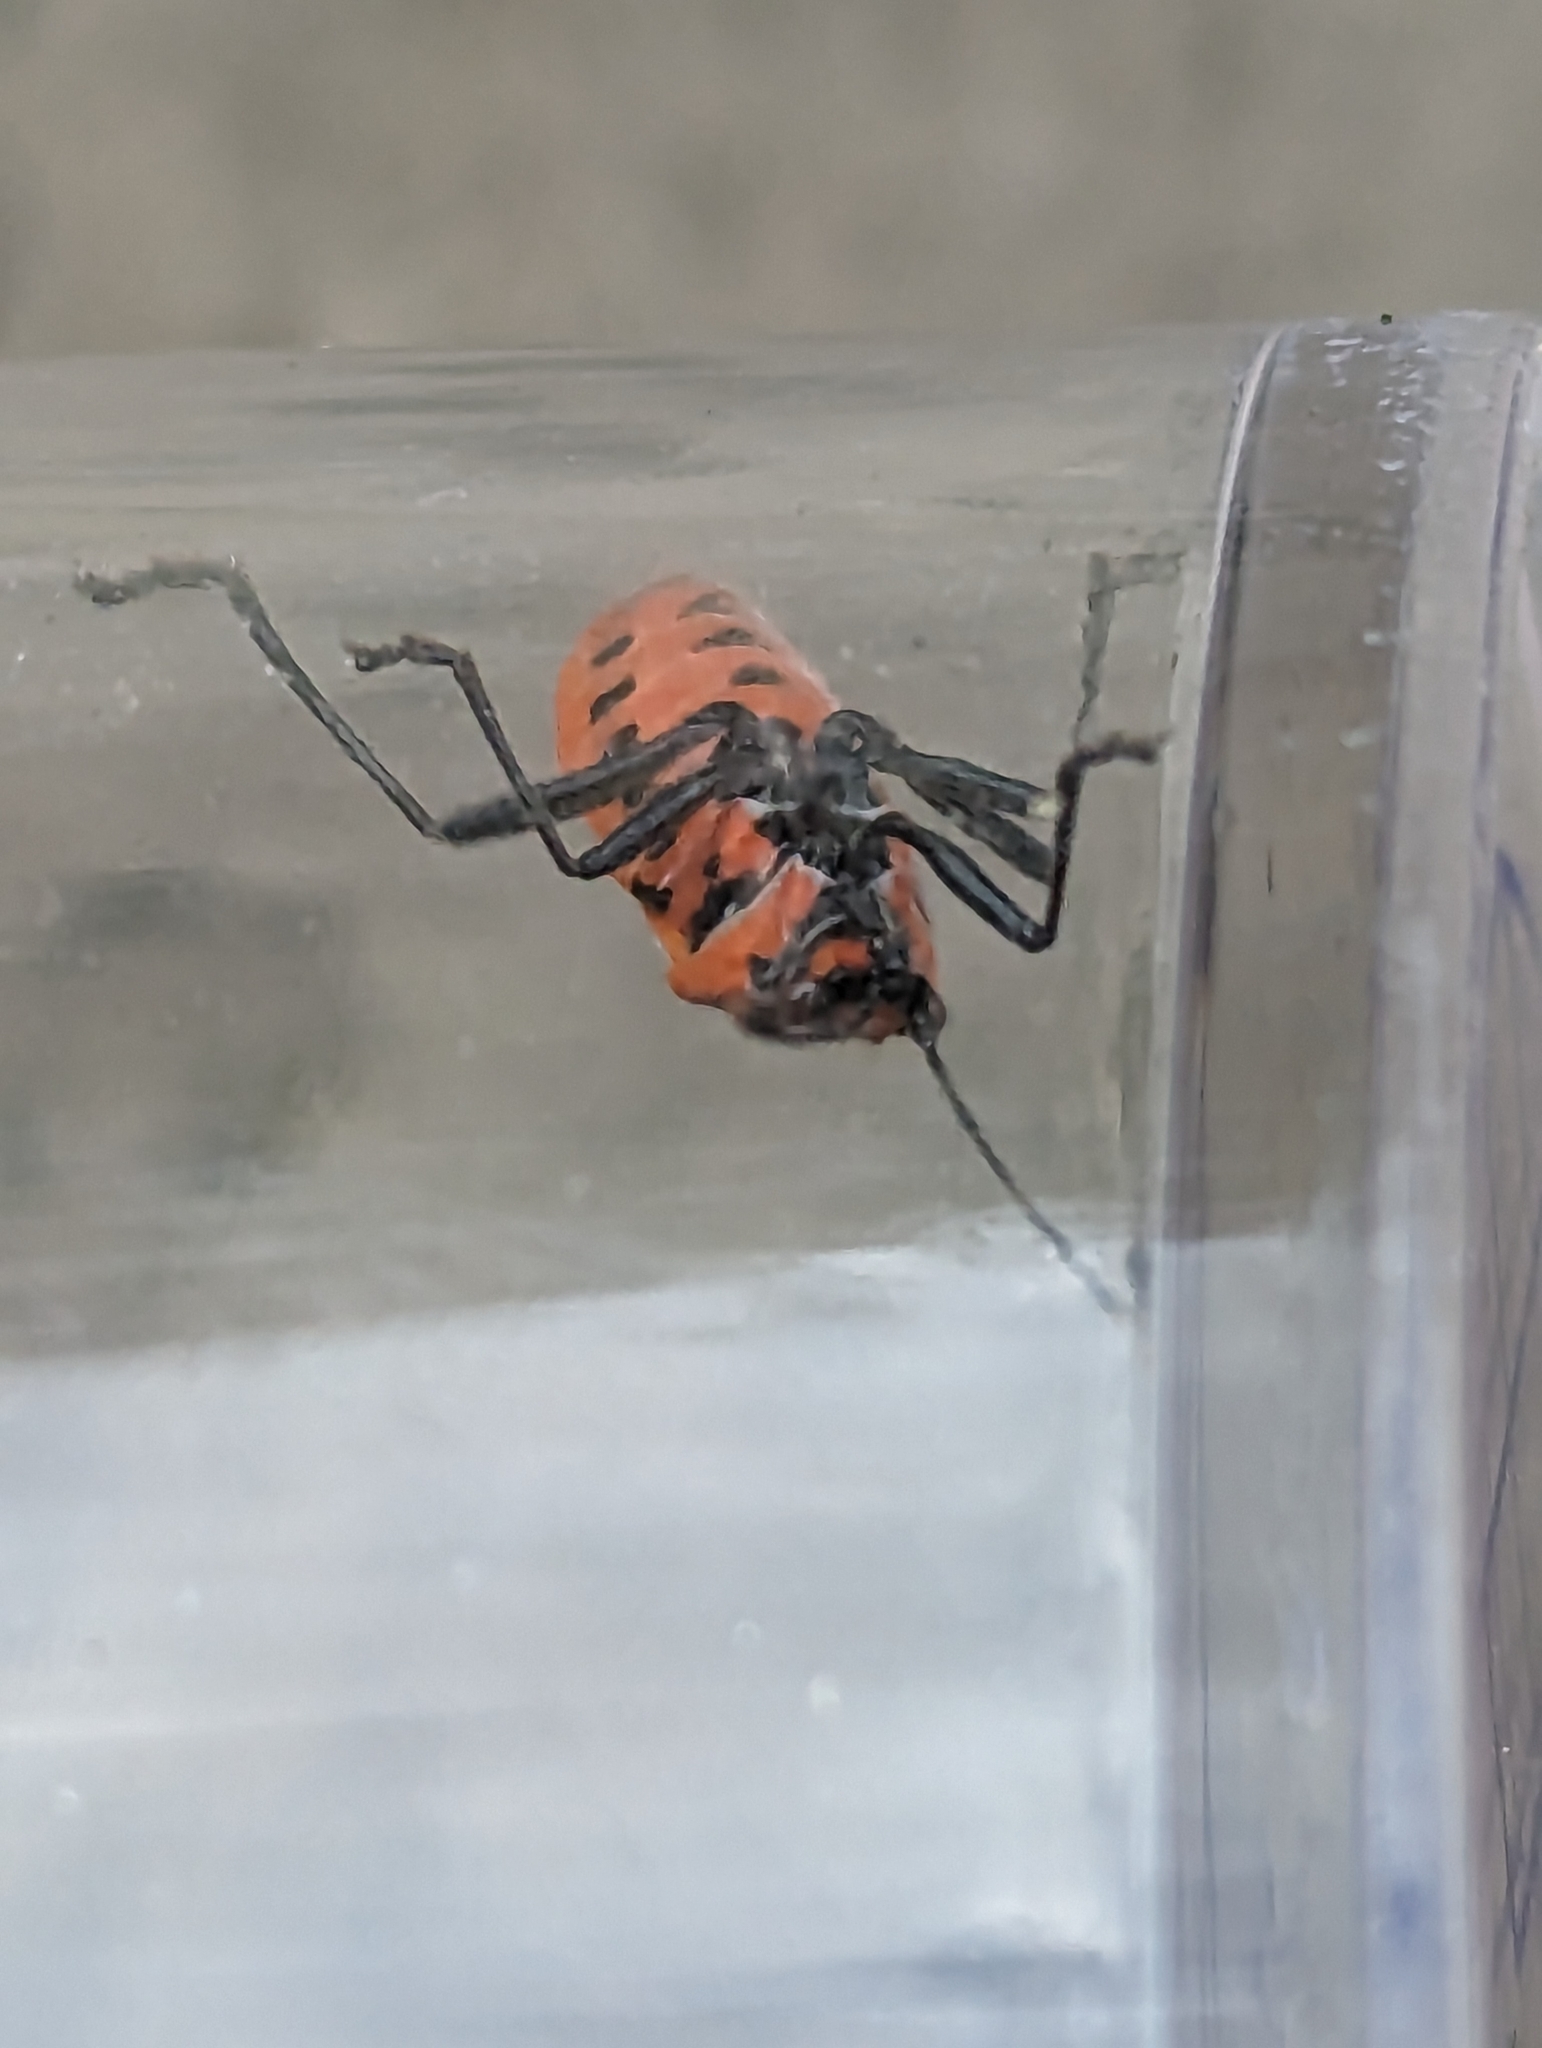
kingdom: Animalia
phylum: Arthropoda
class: Insecta
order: Hemiptera
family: Rhopalidae
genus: Corizus
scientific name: Corizus hyoscyami
